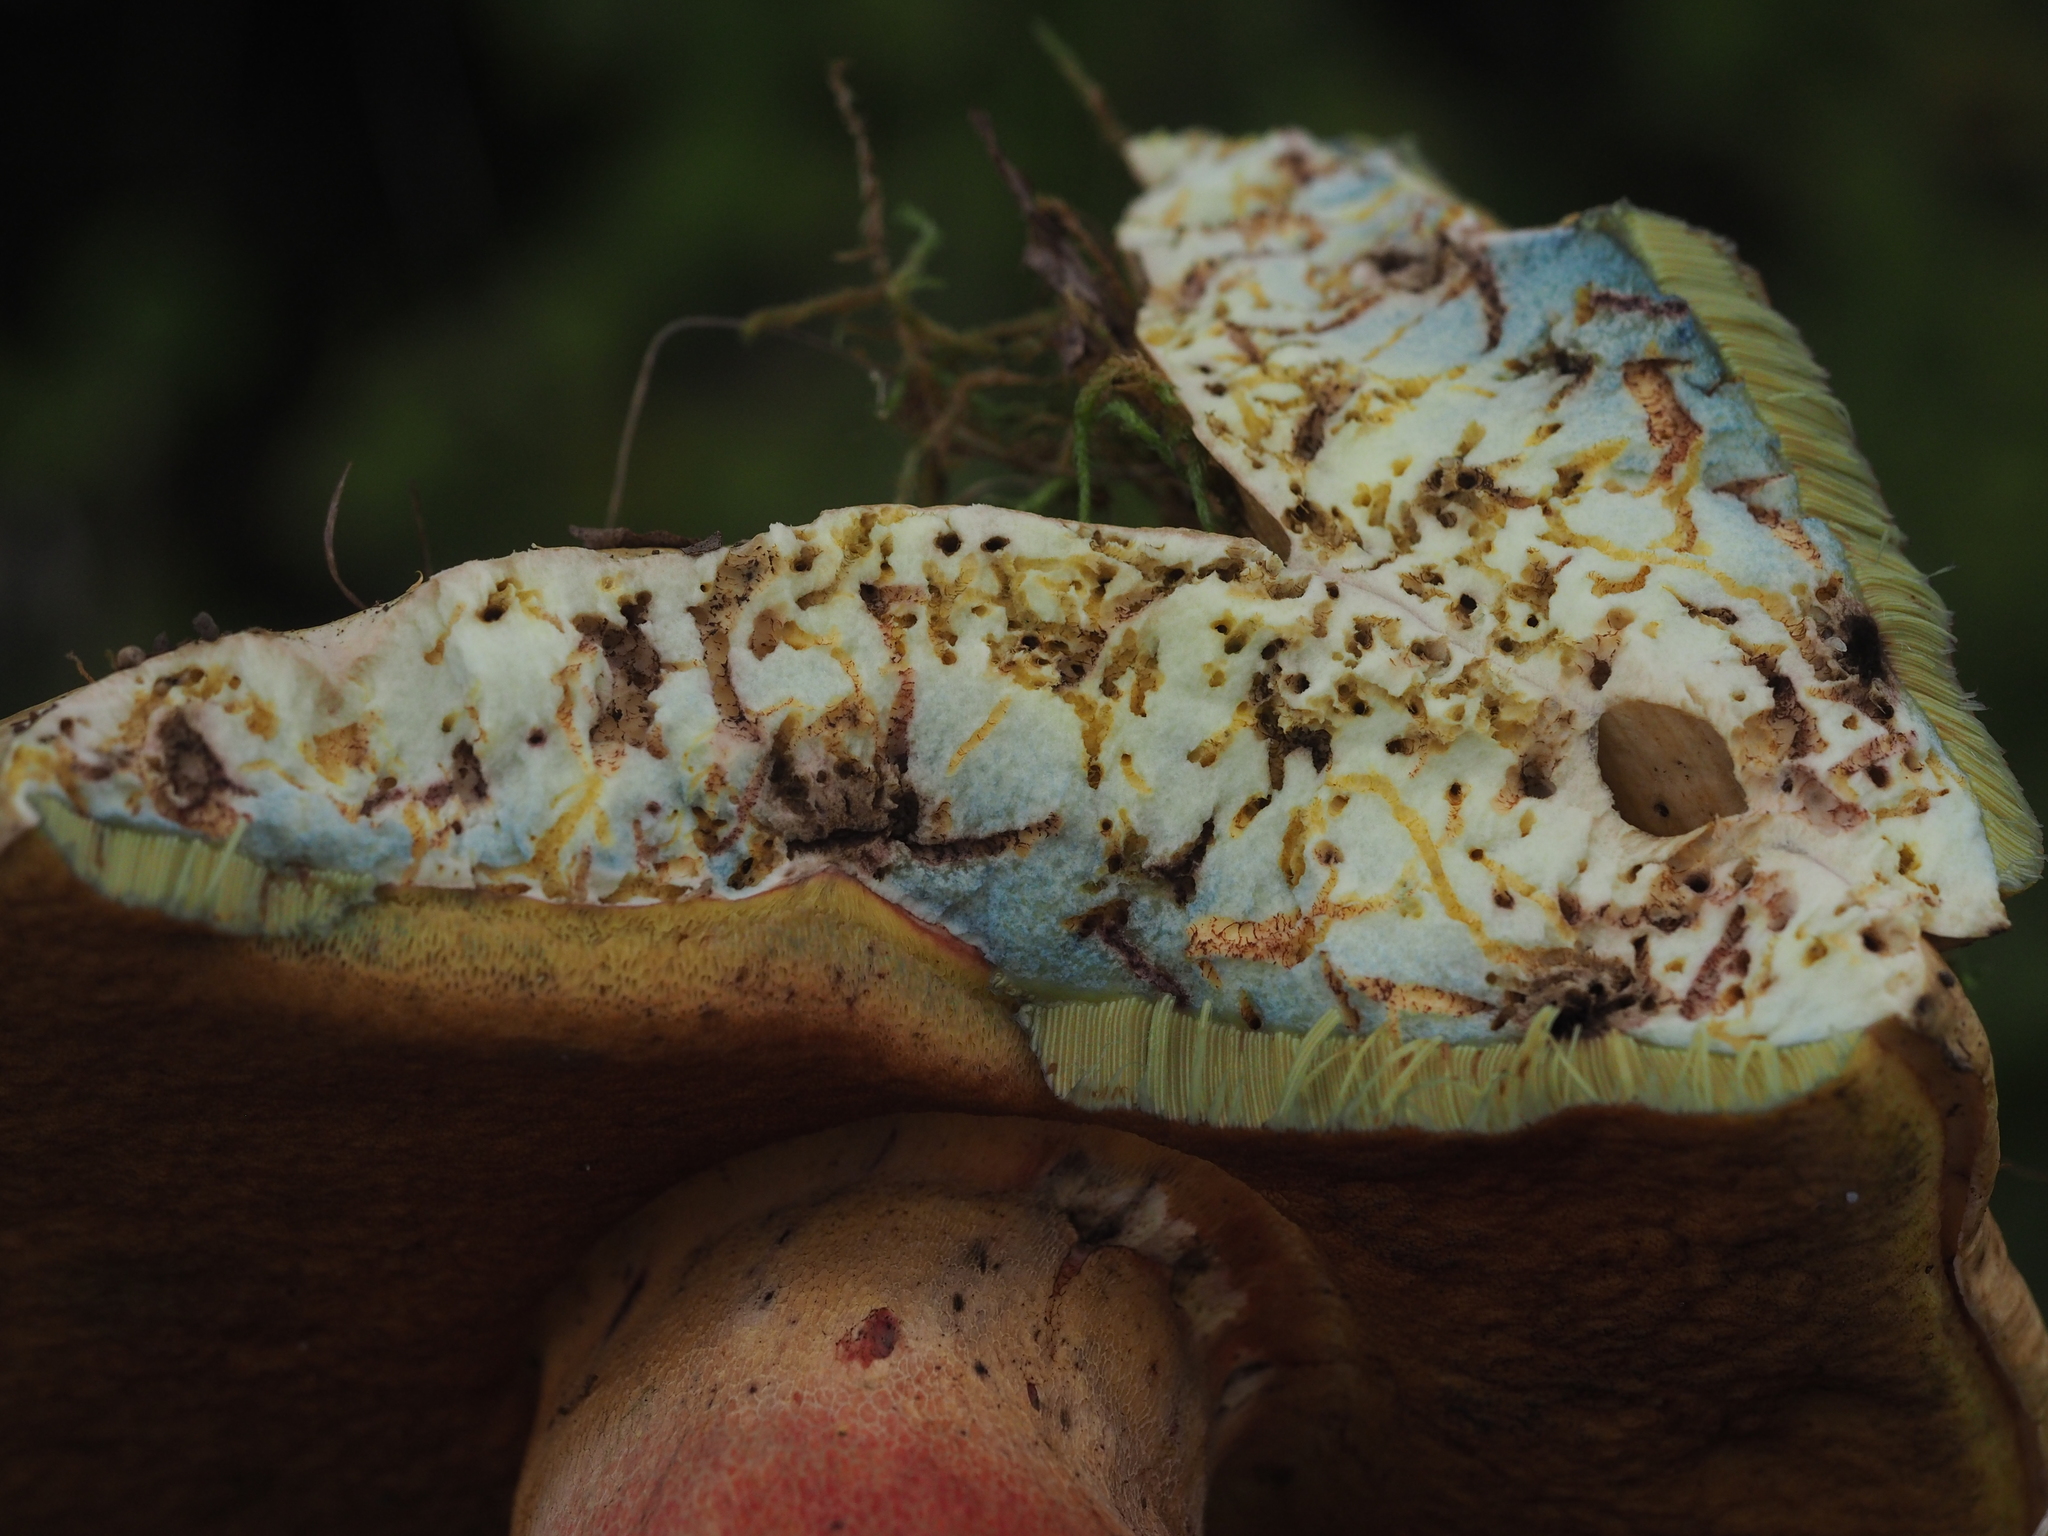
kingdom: Fungi
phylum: Basidiomycota
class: Agaricomycetes
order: Boletales
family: Boletaceae
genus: Rubroboletus
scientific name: Rubroboletus satanas
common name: Devil's bolete
